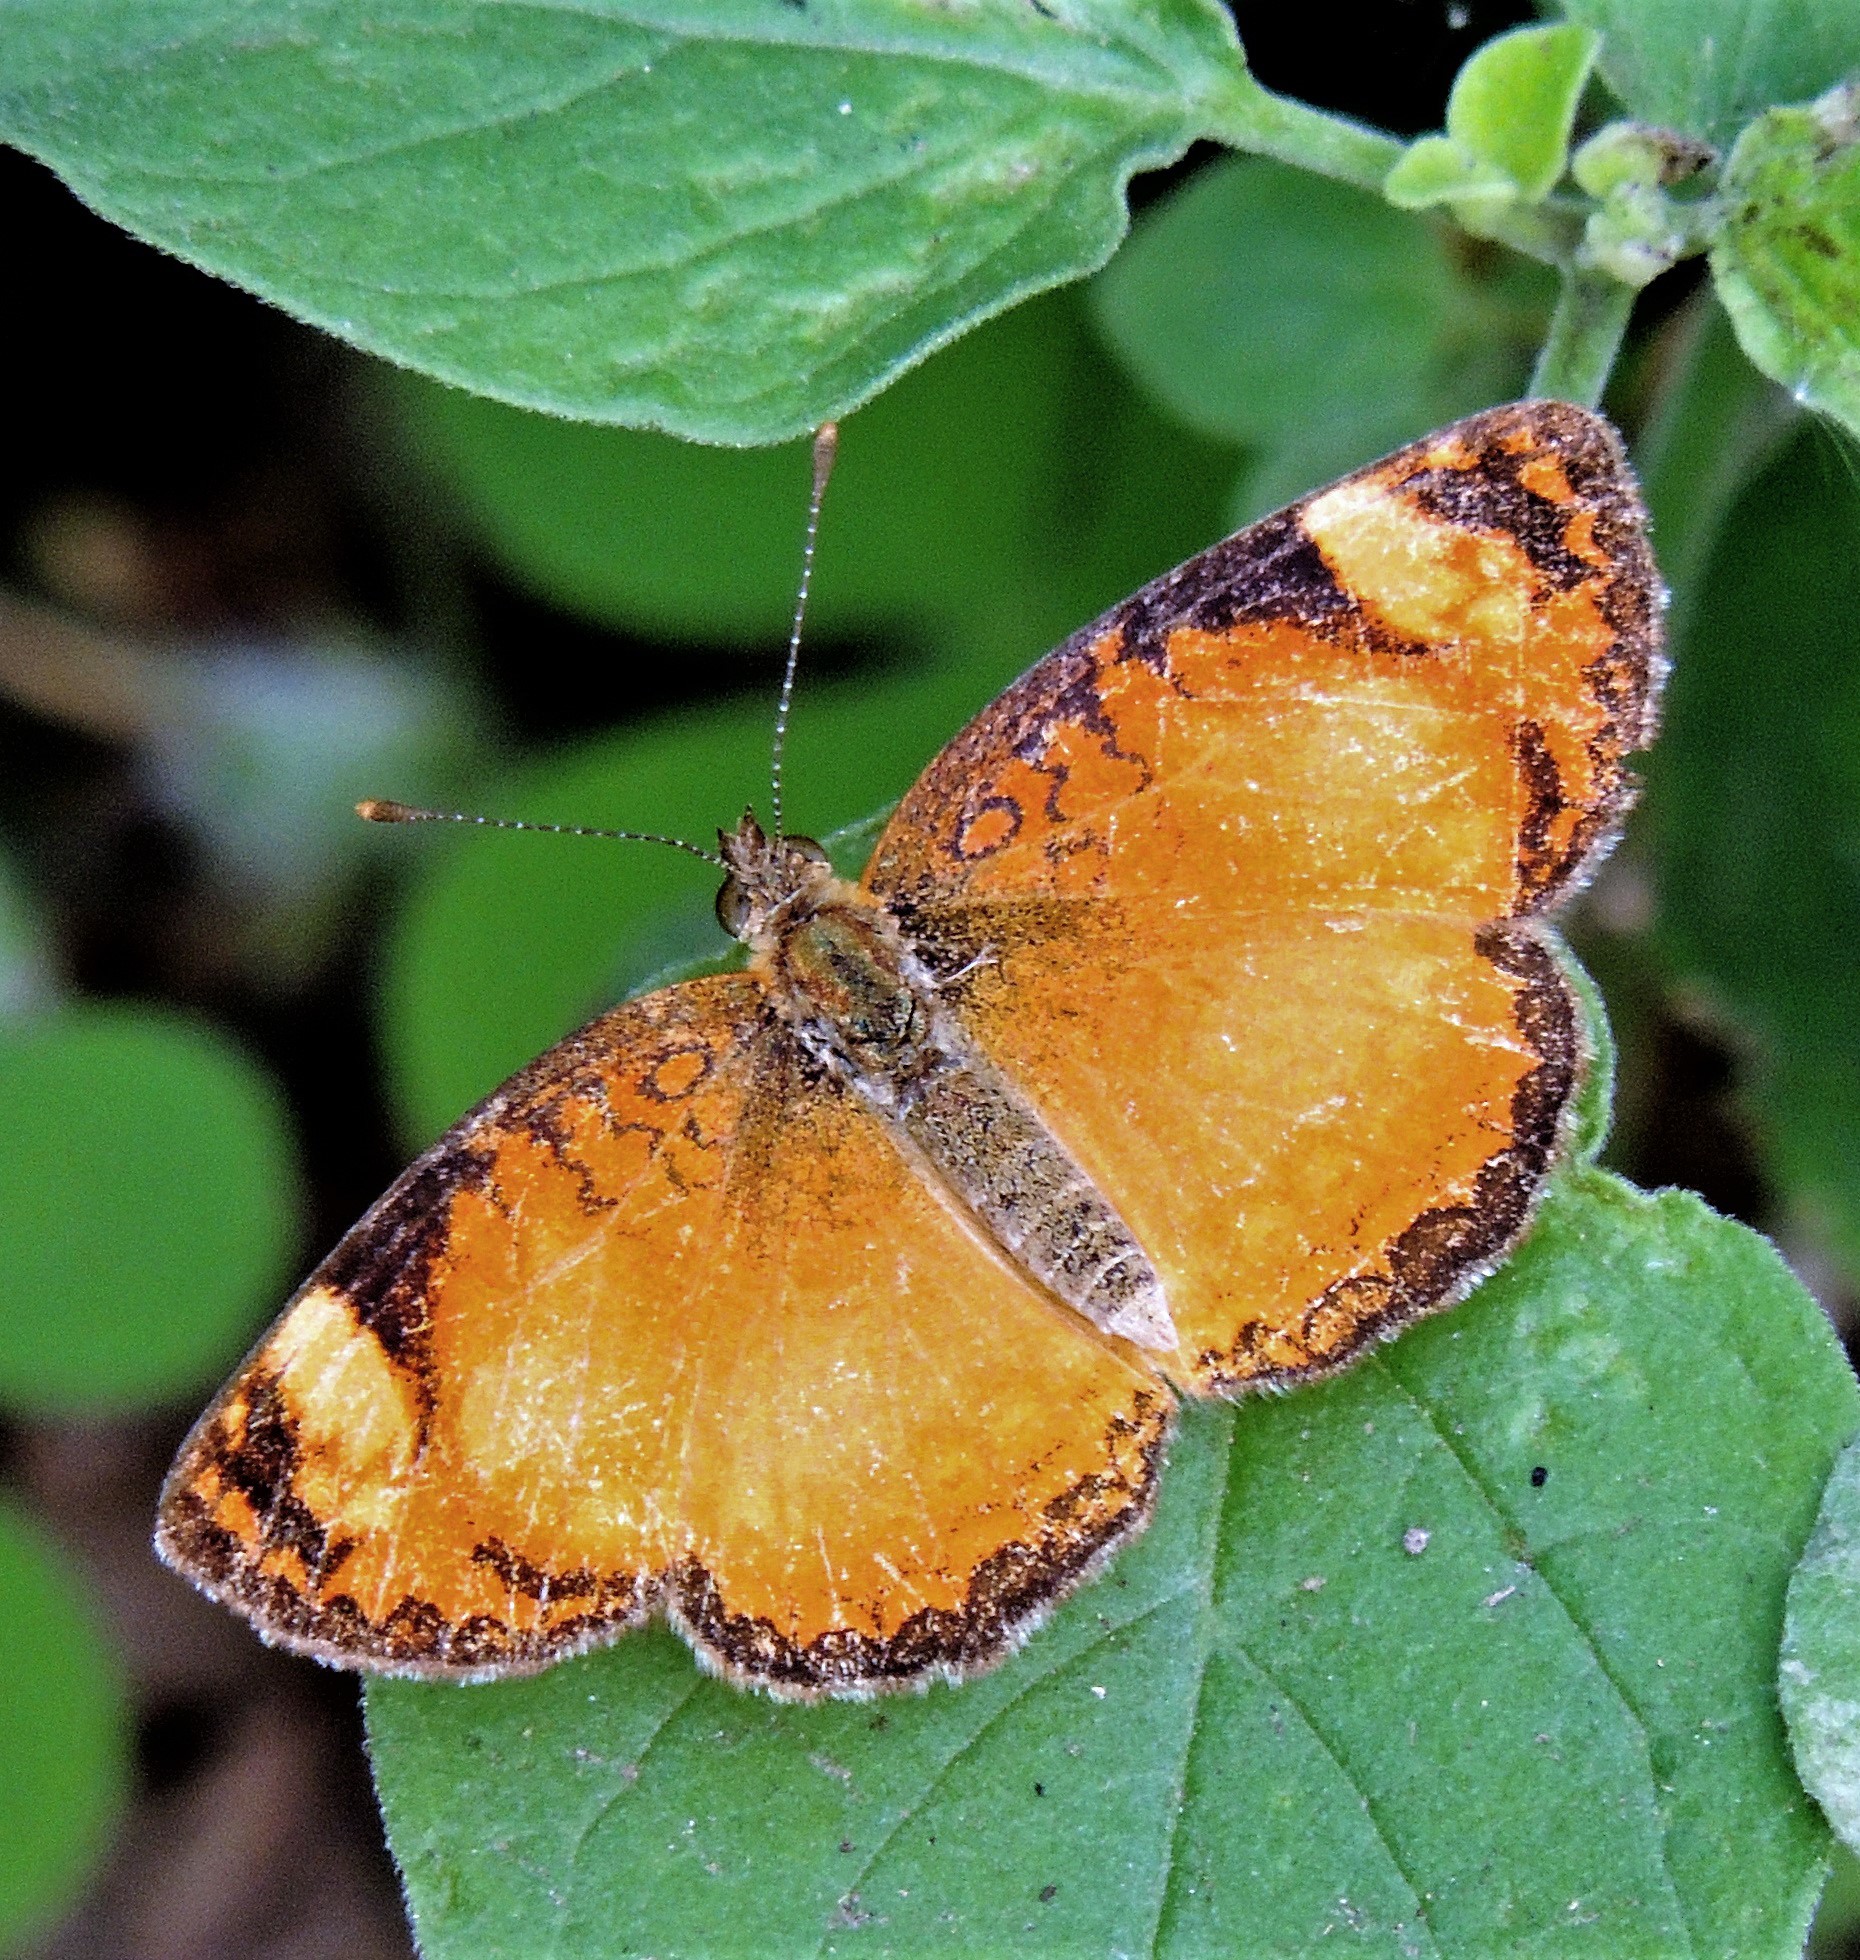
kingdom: Animalia
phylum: Arthropoda
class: Insecta
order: Lepidoptera
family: Nymphalidae
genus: Ortilia
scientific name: Ortilia gentina
